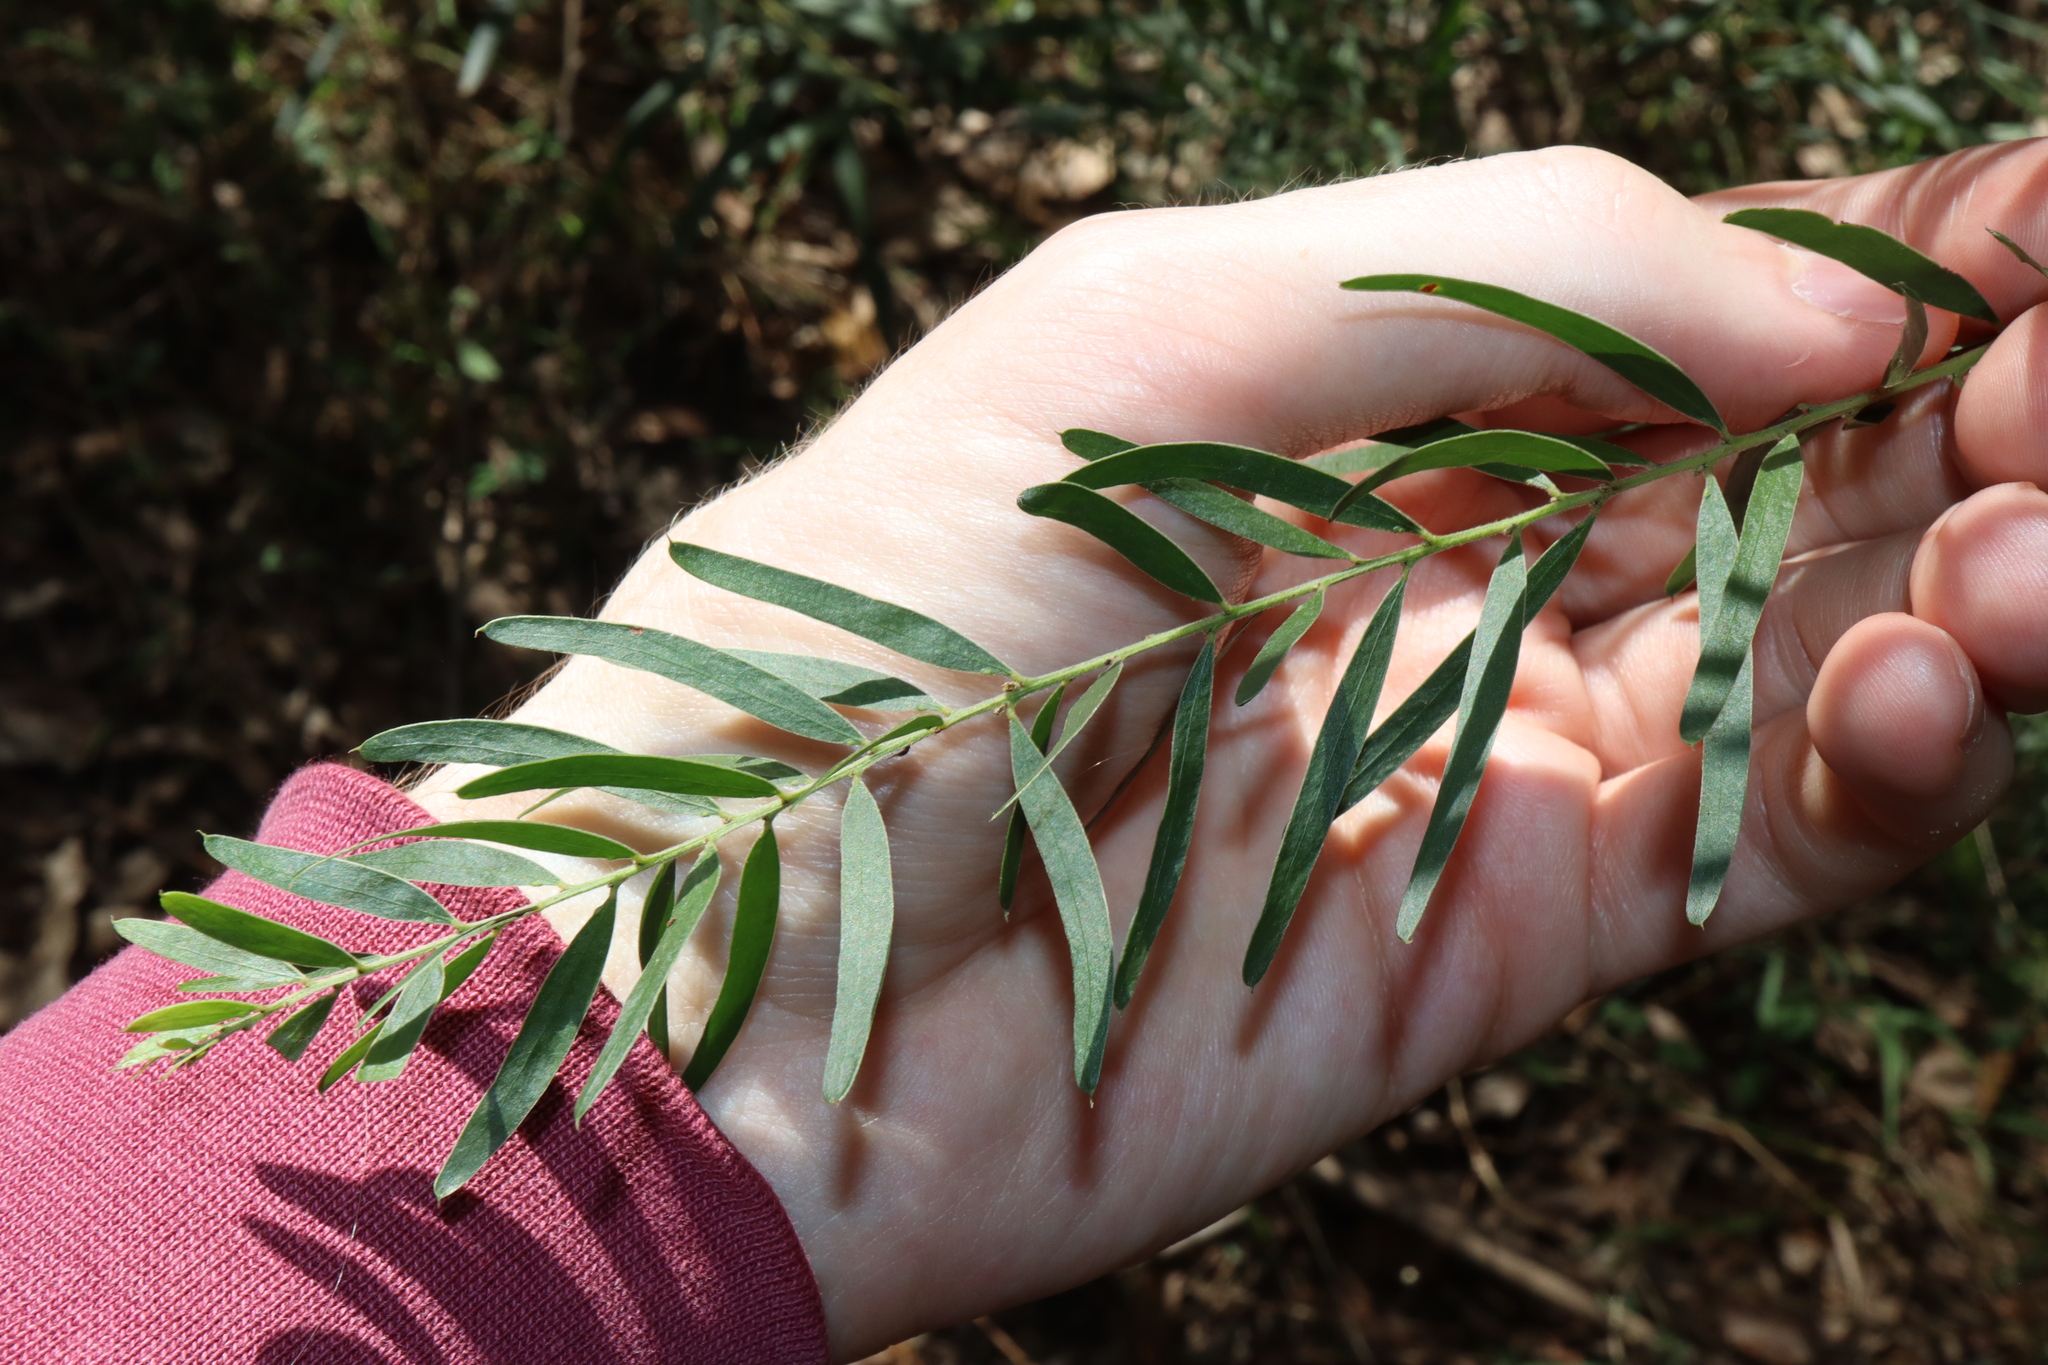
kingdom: Plantae
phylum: Tracheophyta
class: Magnoliopsida
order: Fabales
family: Fabaceae
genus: Acacia
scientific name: Acacia fimbriata
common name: Brisbane golden wattle
